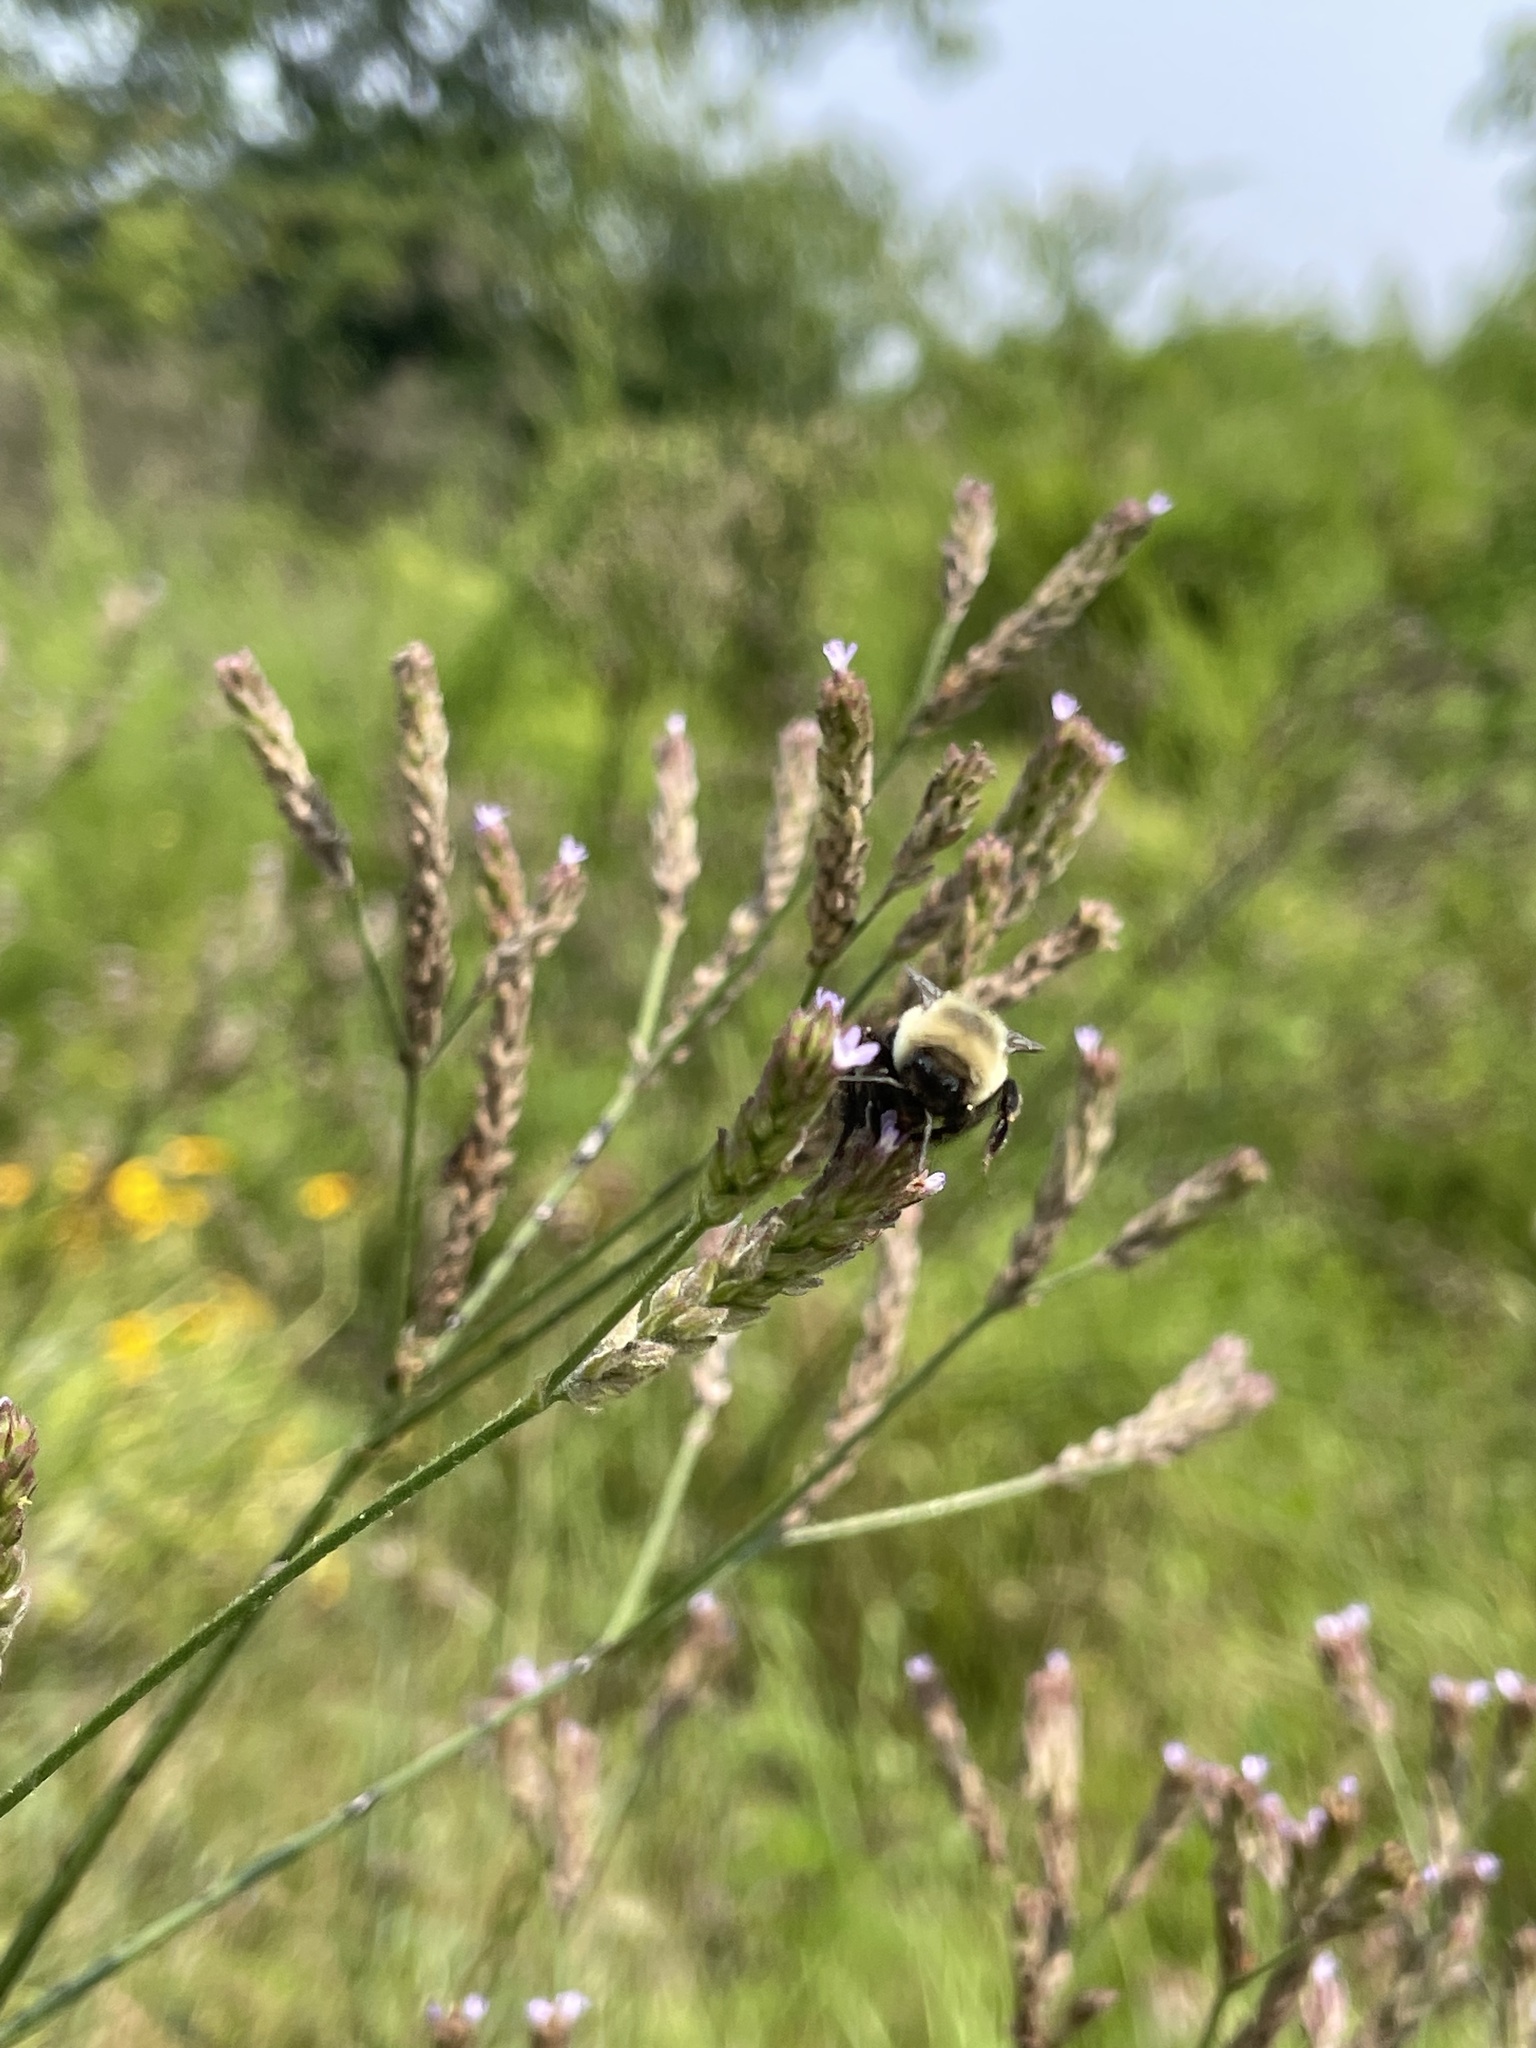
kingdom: Animalia
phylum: Arthropoda
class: Insecta
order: Hymenoptera
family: Apidae
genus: Bombus
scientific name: Bombus impatiens
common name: Common eastern bumble bee
